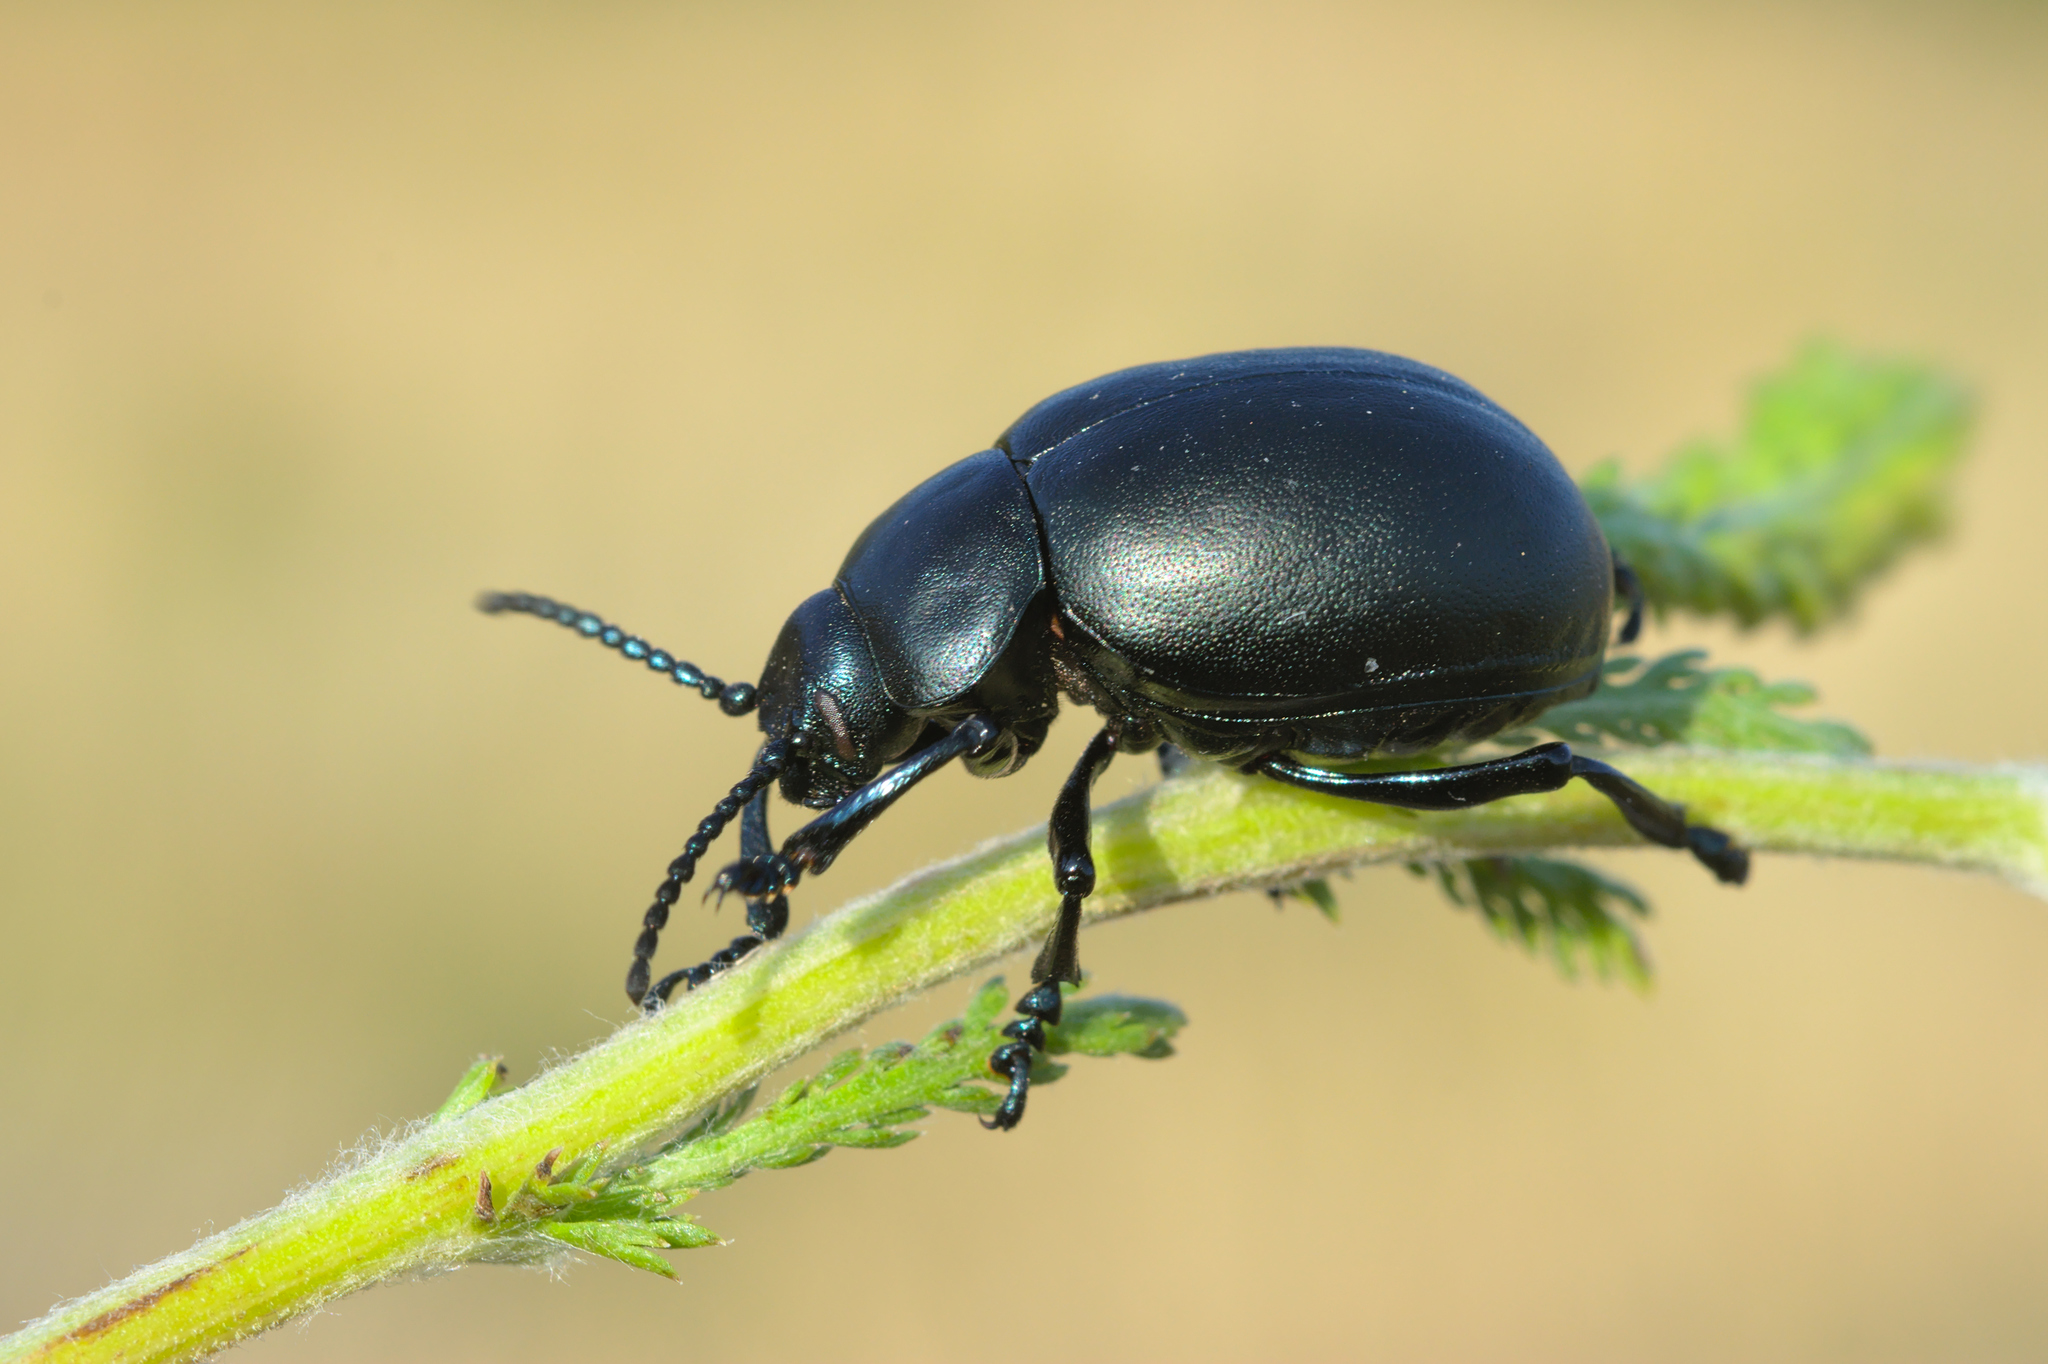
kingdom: Animalia
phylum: Arthropoda
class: Insecta
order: Coleoptera
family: Chrysomelidae
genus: Timarcha
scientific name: Timarcha tenebricosa
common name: Bloody-nosed beetle
